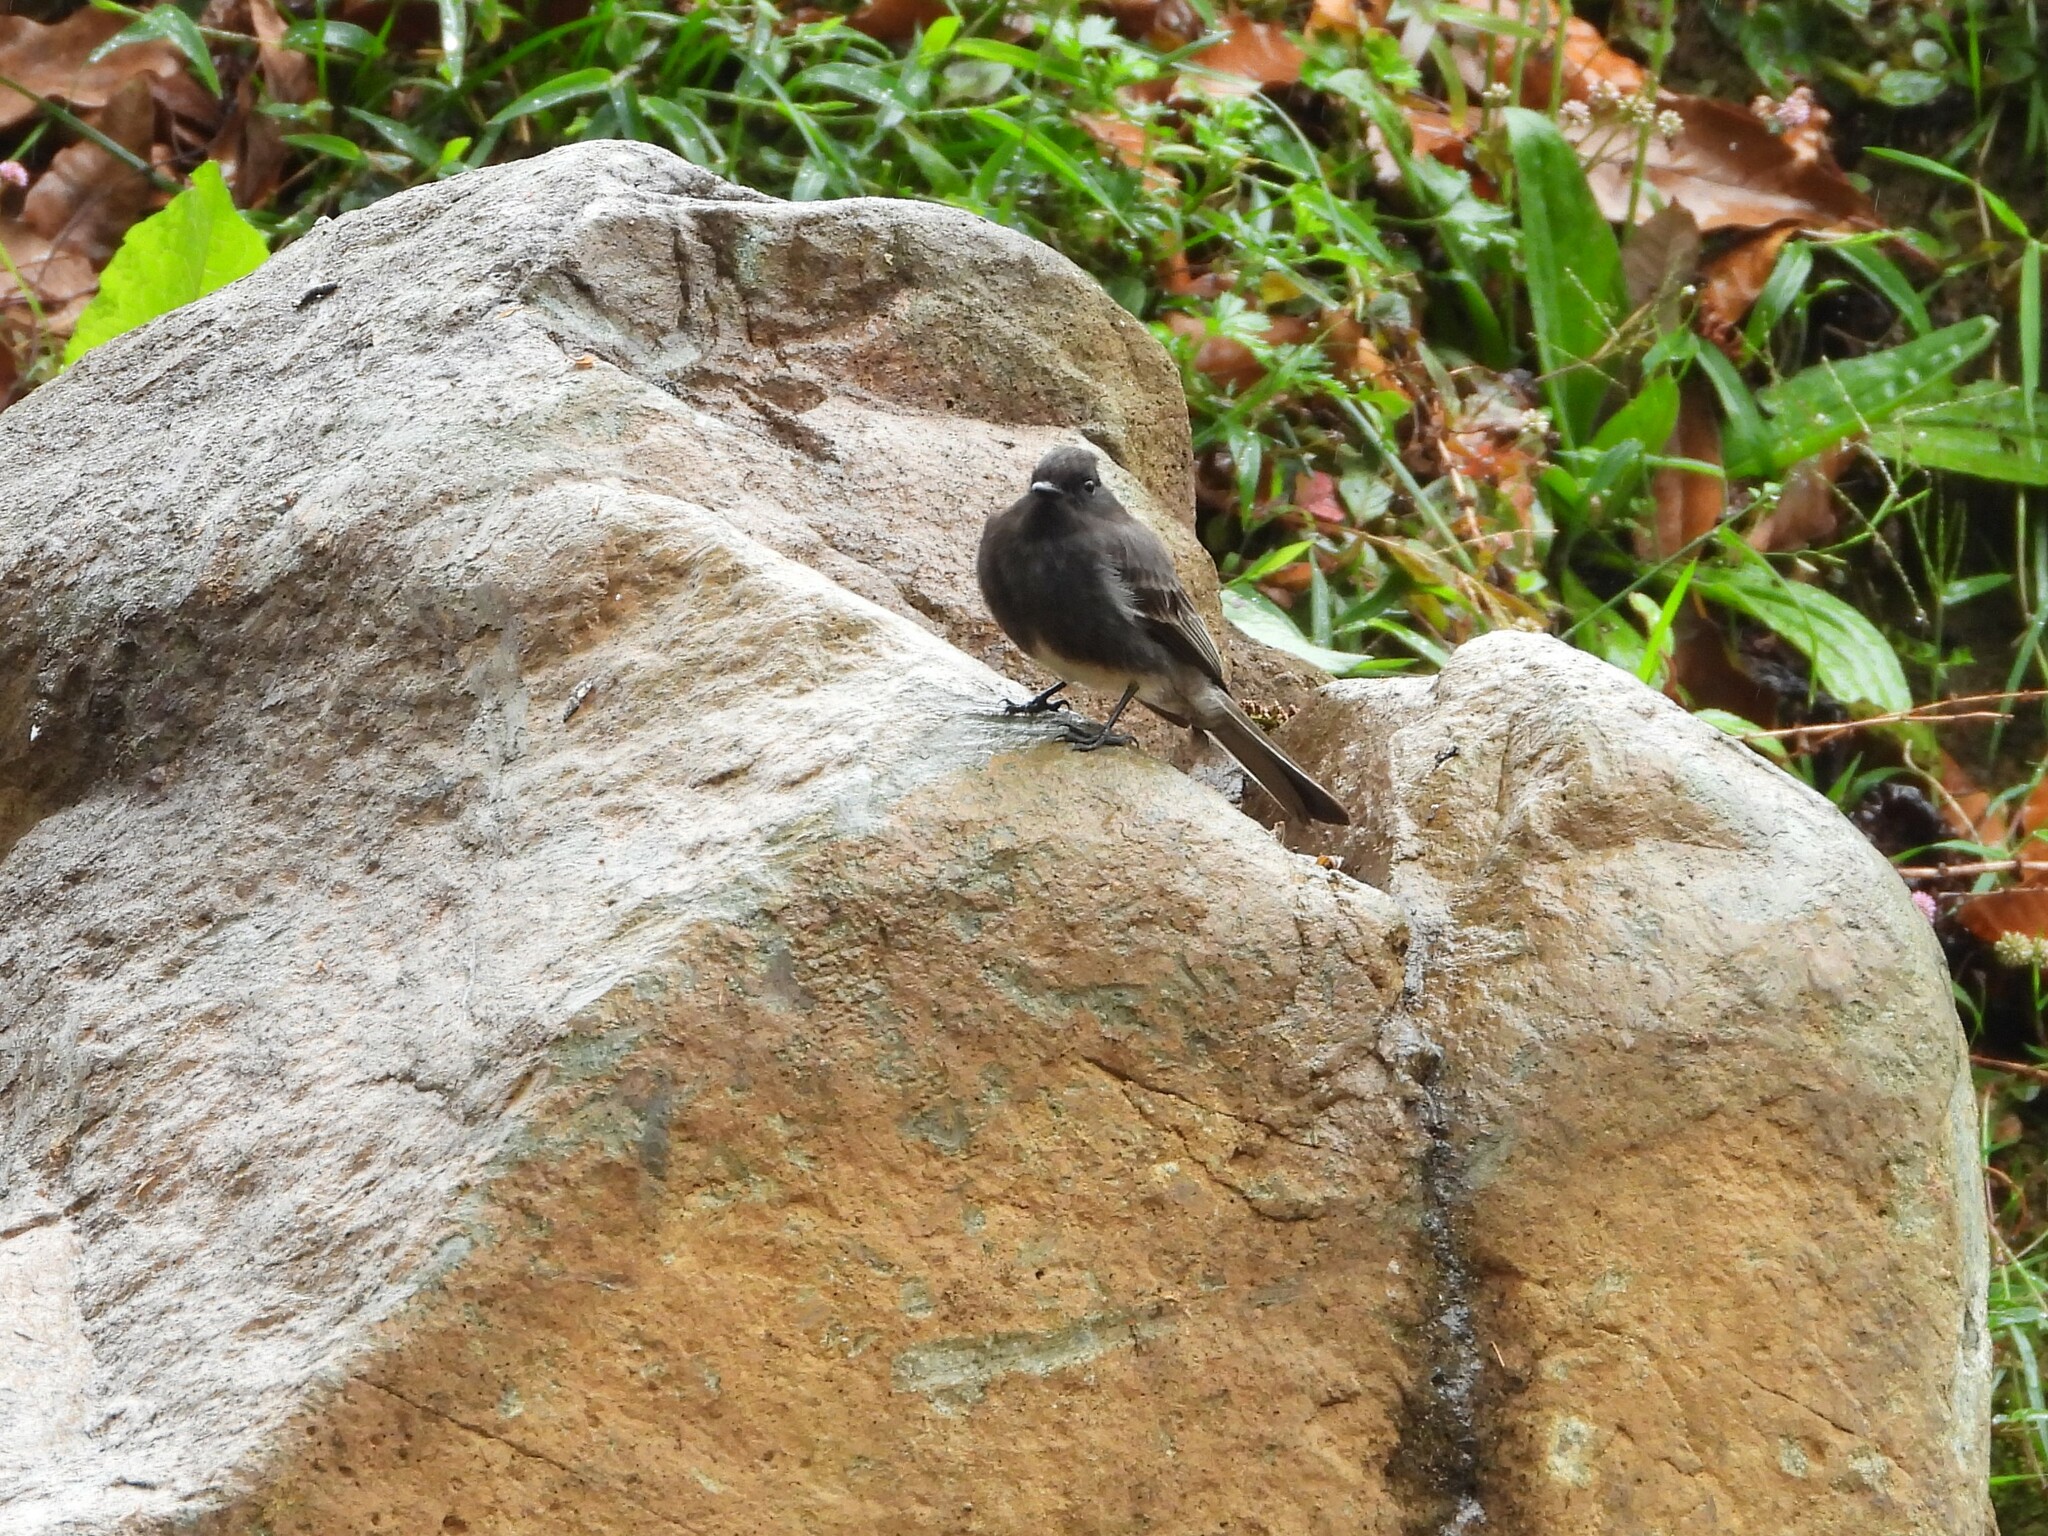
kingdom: Animalia
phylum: Chordata
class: Aves
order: Passeriformes
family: Tyrannidae
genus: Sayornis
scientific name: Sayornis nigricans
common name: Black phoebe
